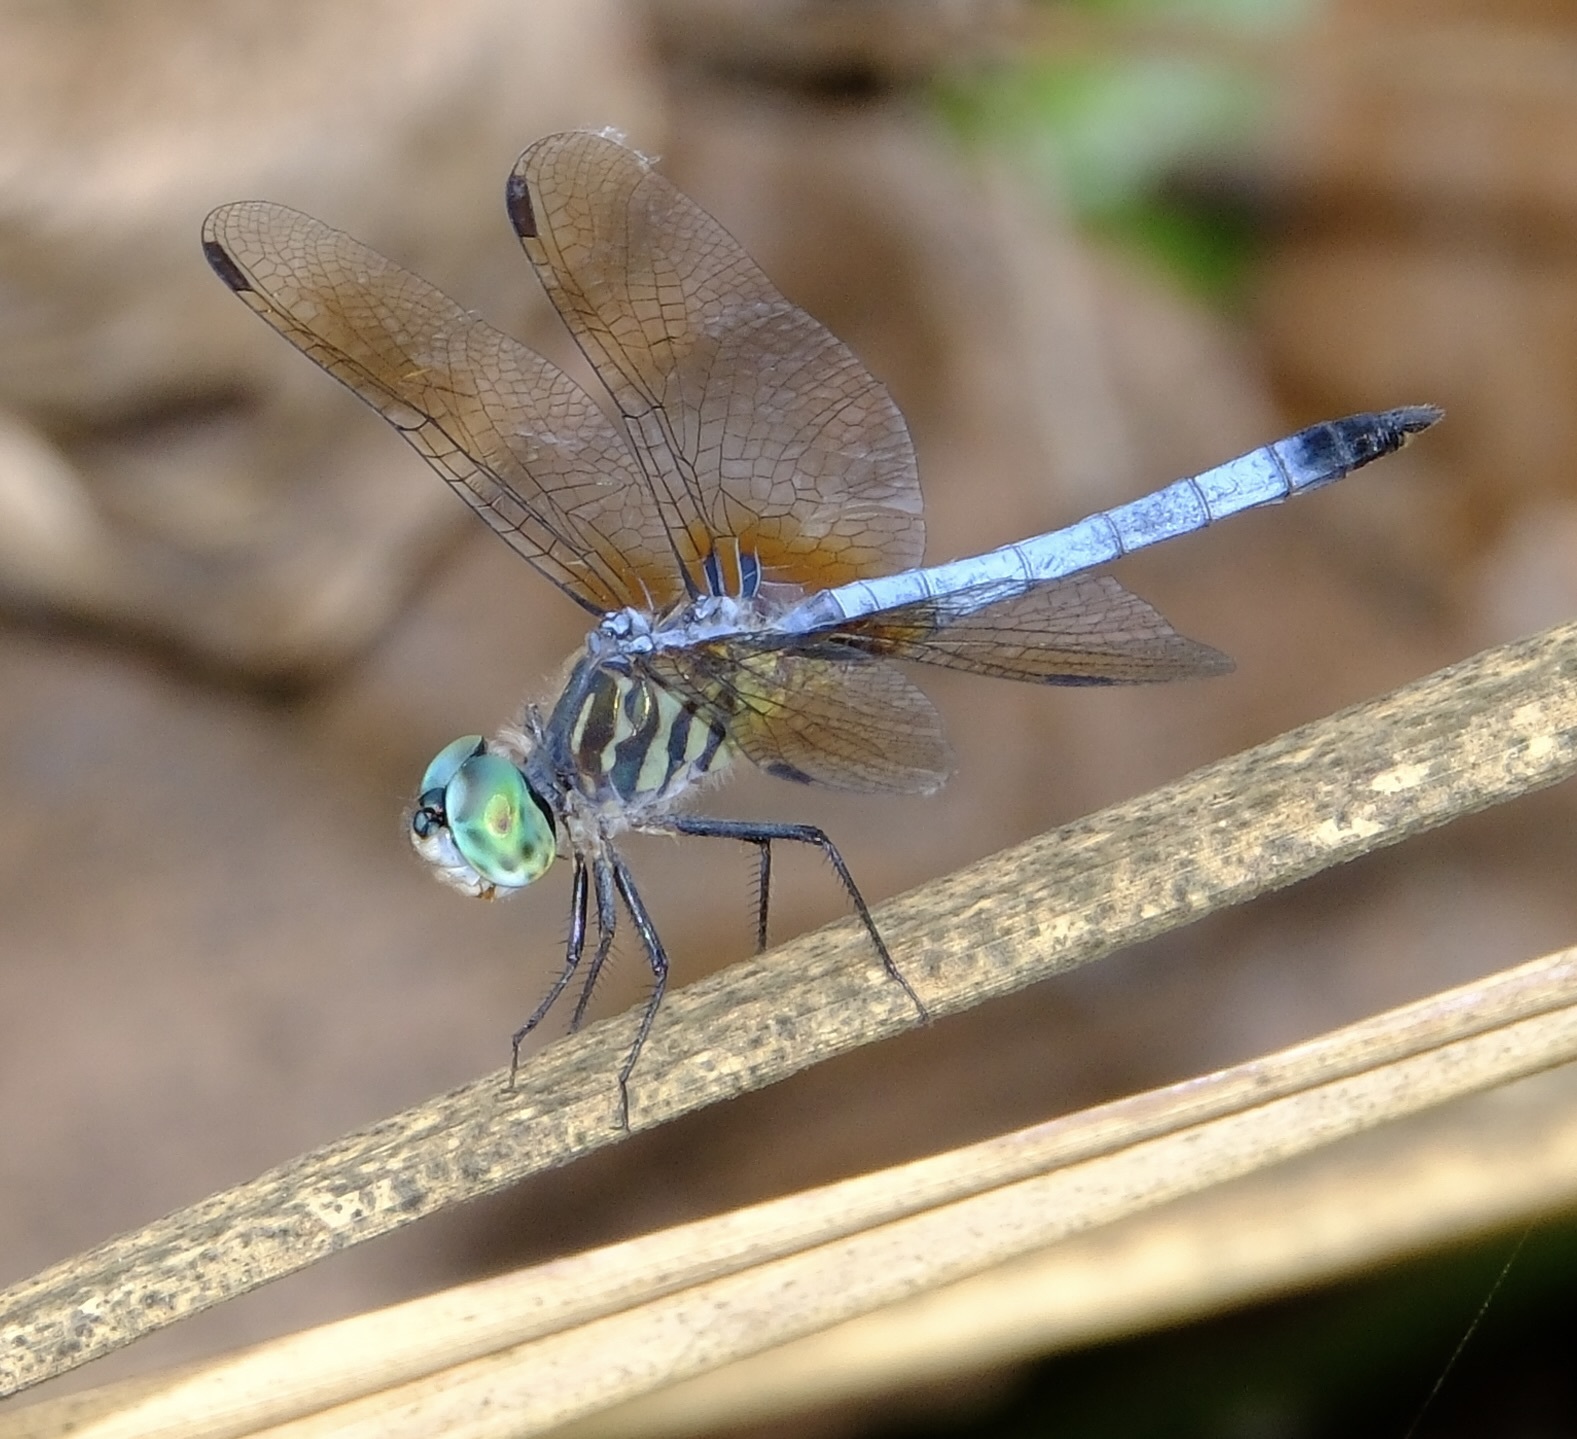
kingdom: Animalia
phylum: Arthropoda
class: Insecta
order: Odonata
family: Libellulidae
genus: Pachydiplax
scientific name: Pachydiplax longipennis
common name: Blue dasher
